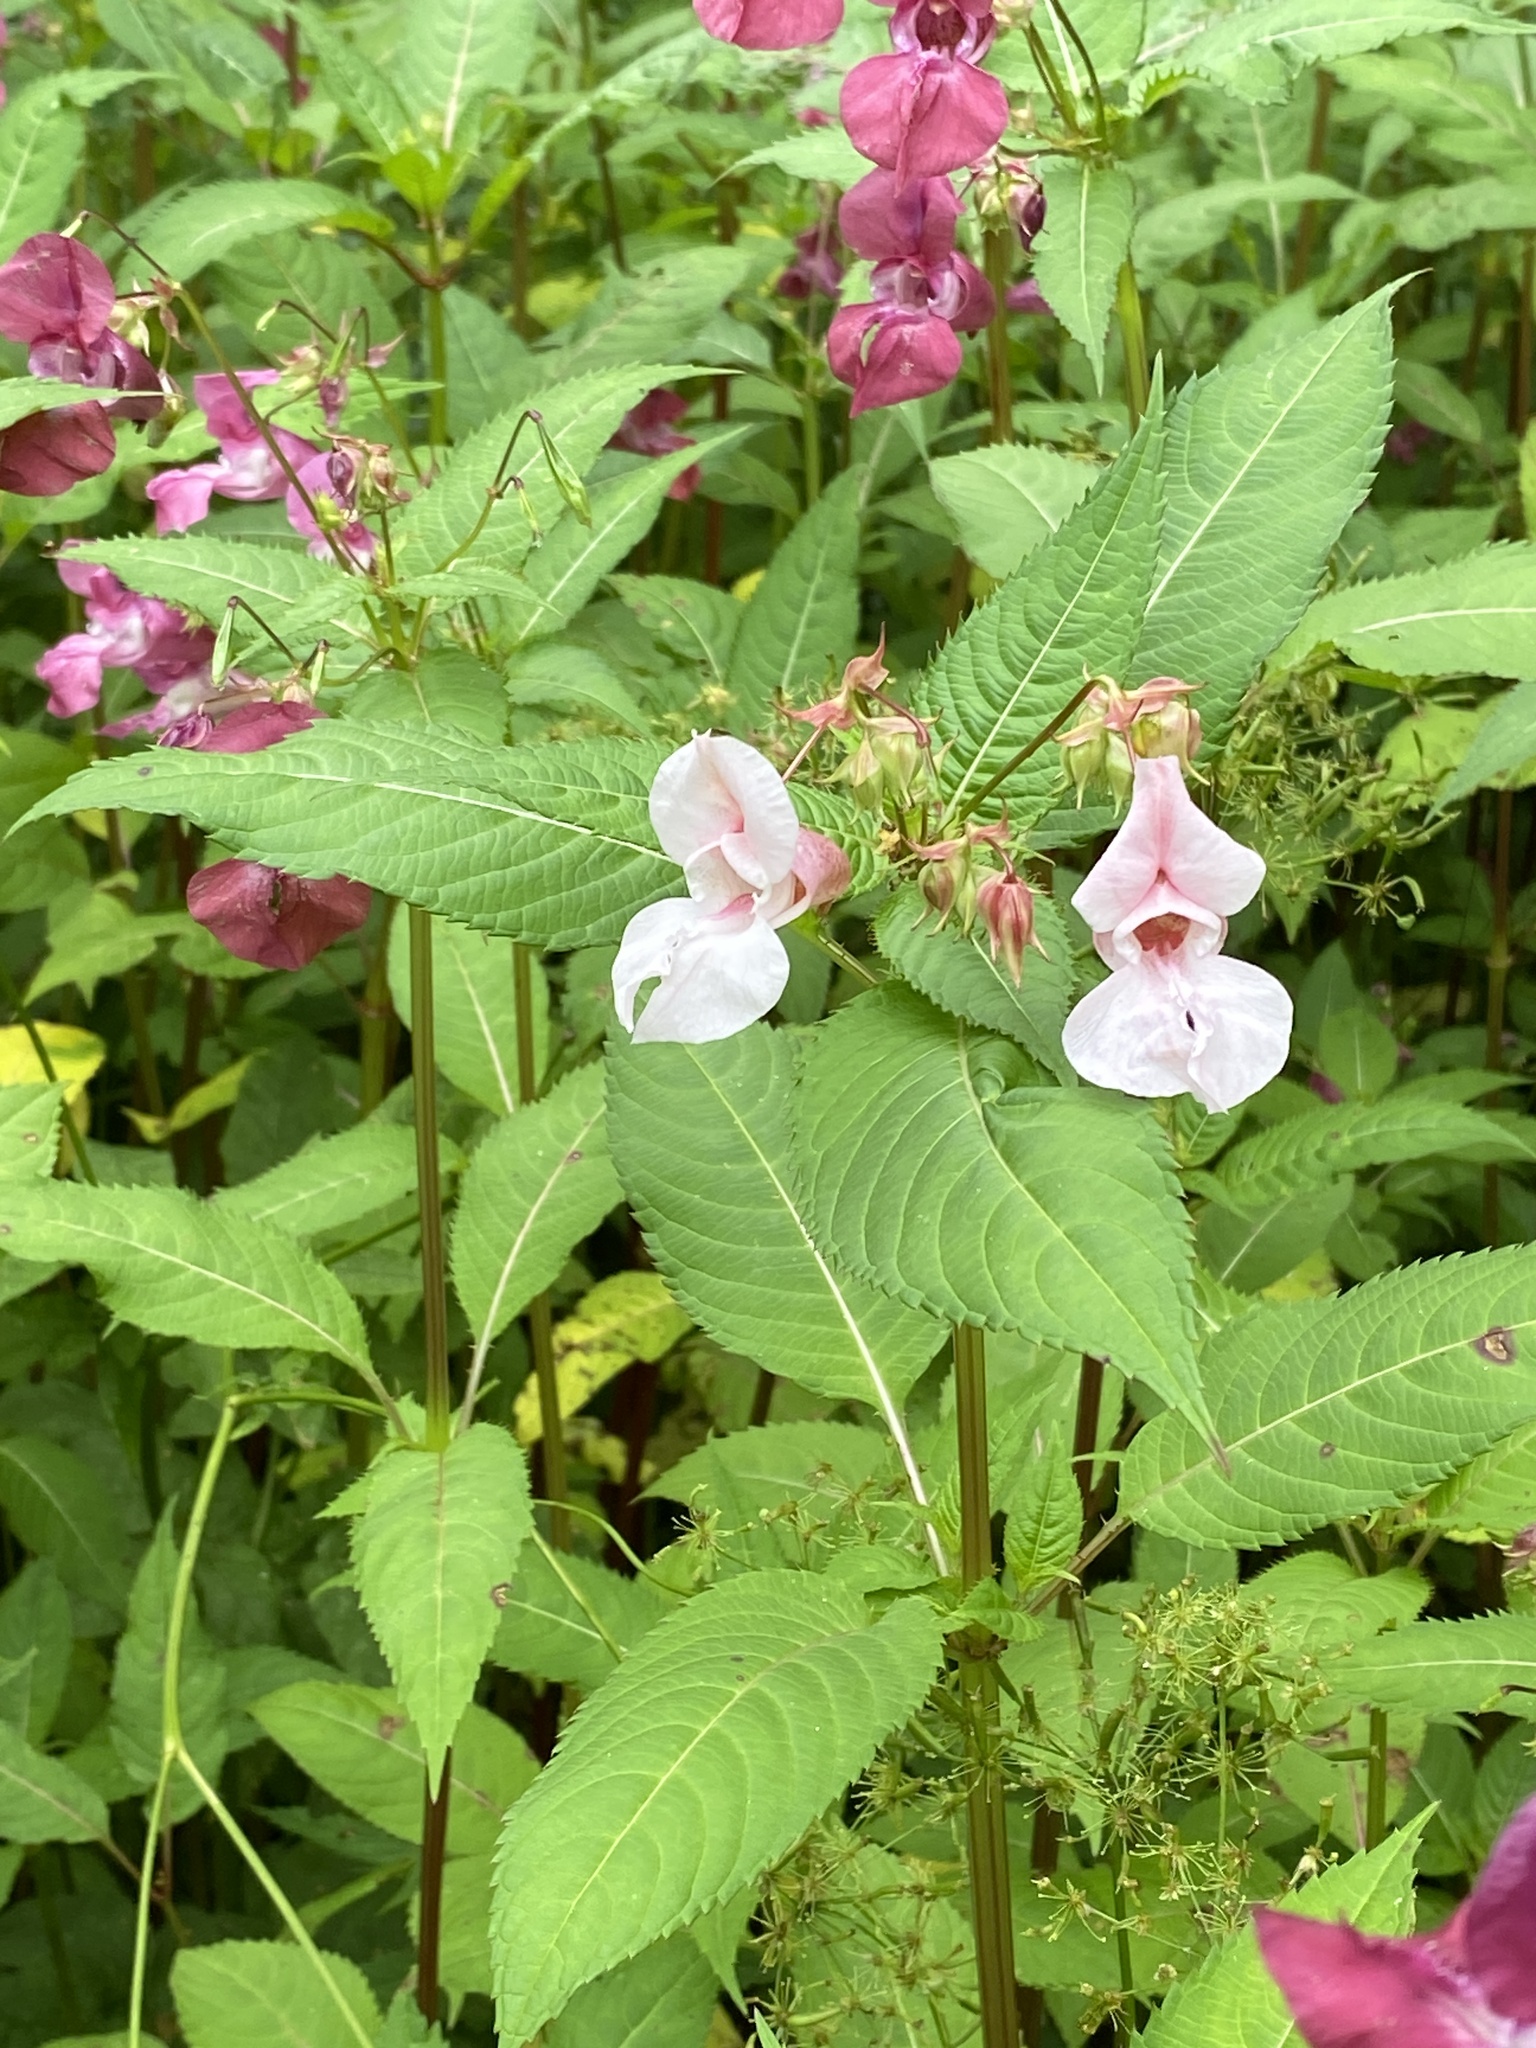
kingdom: Plantae
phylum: Tracheophyta
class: Magnoliopsida
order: Ericales
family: Balsaminaceae
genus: Impatiens
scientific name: Impatiens glandulifera
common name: Himalayan balsam
